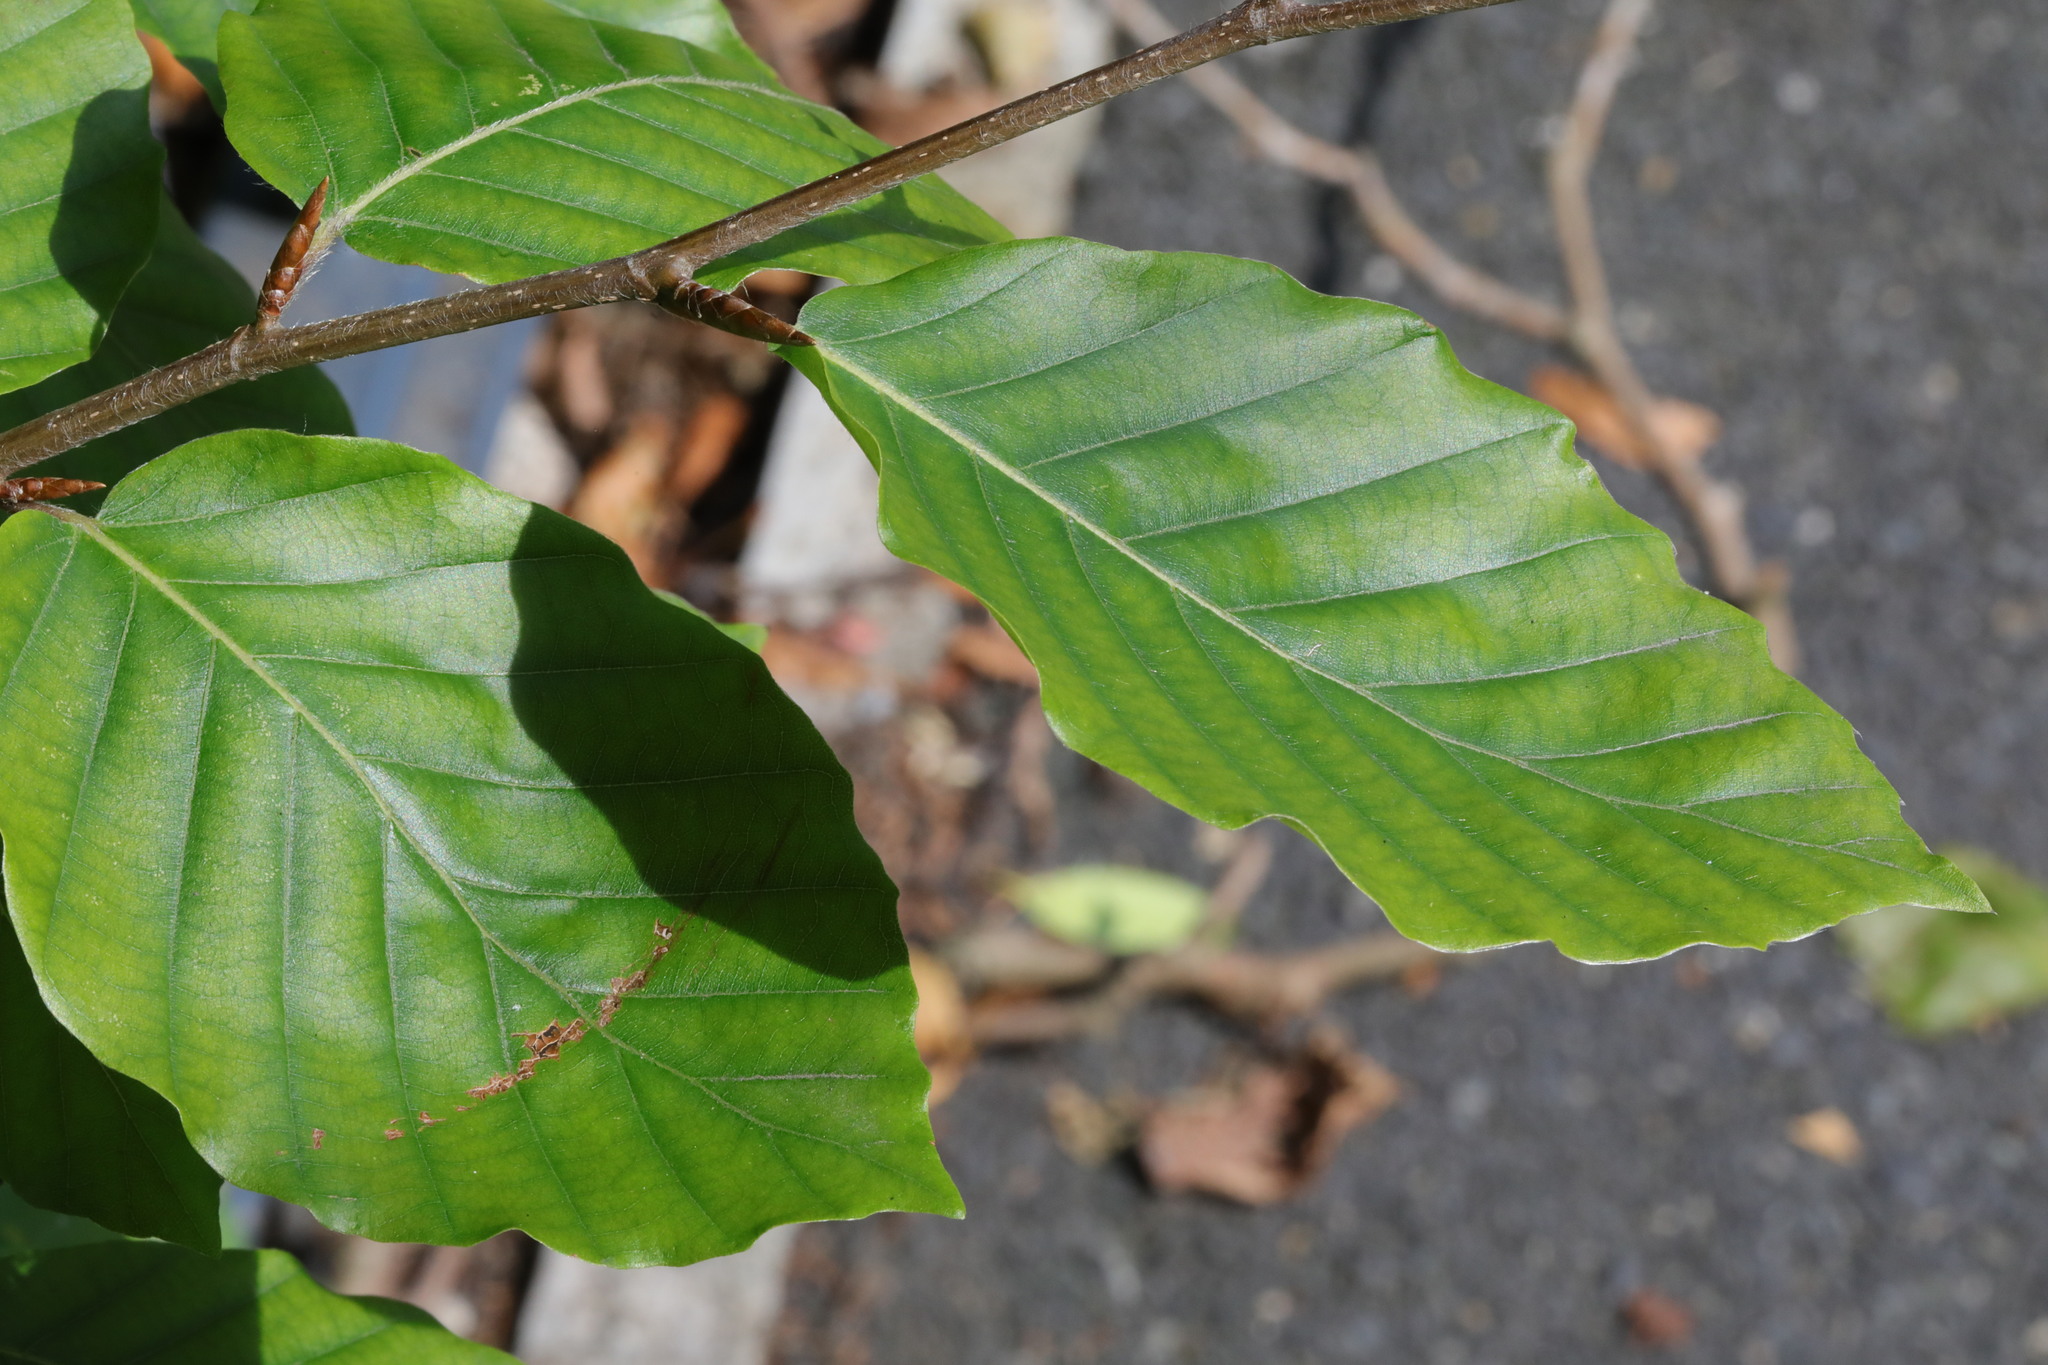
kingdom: Plantae
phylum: Tracheophyta
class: Magnoliopsida
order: Fagales
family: Fagaceae
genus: Fagus
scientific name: Fagus sylvatica
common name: Beech
